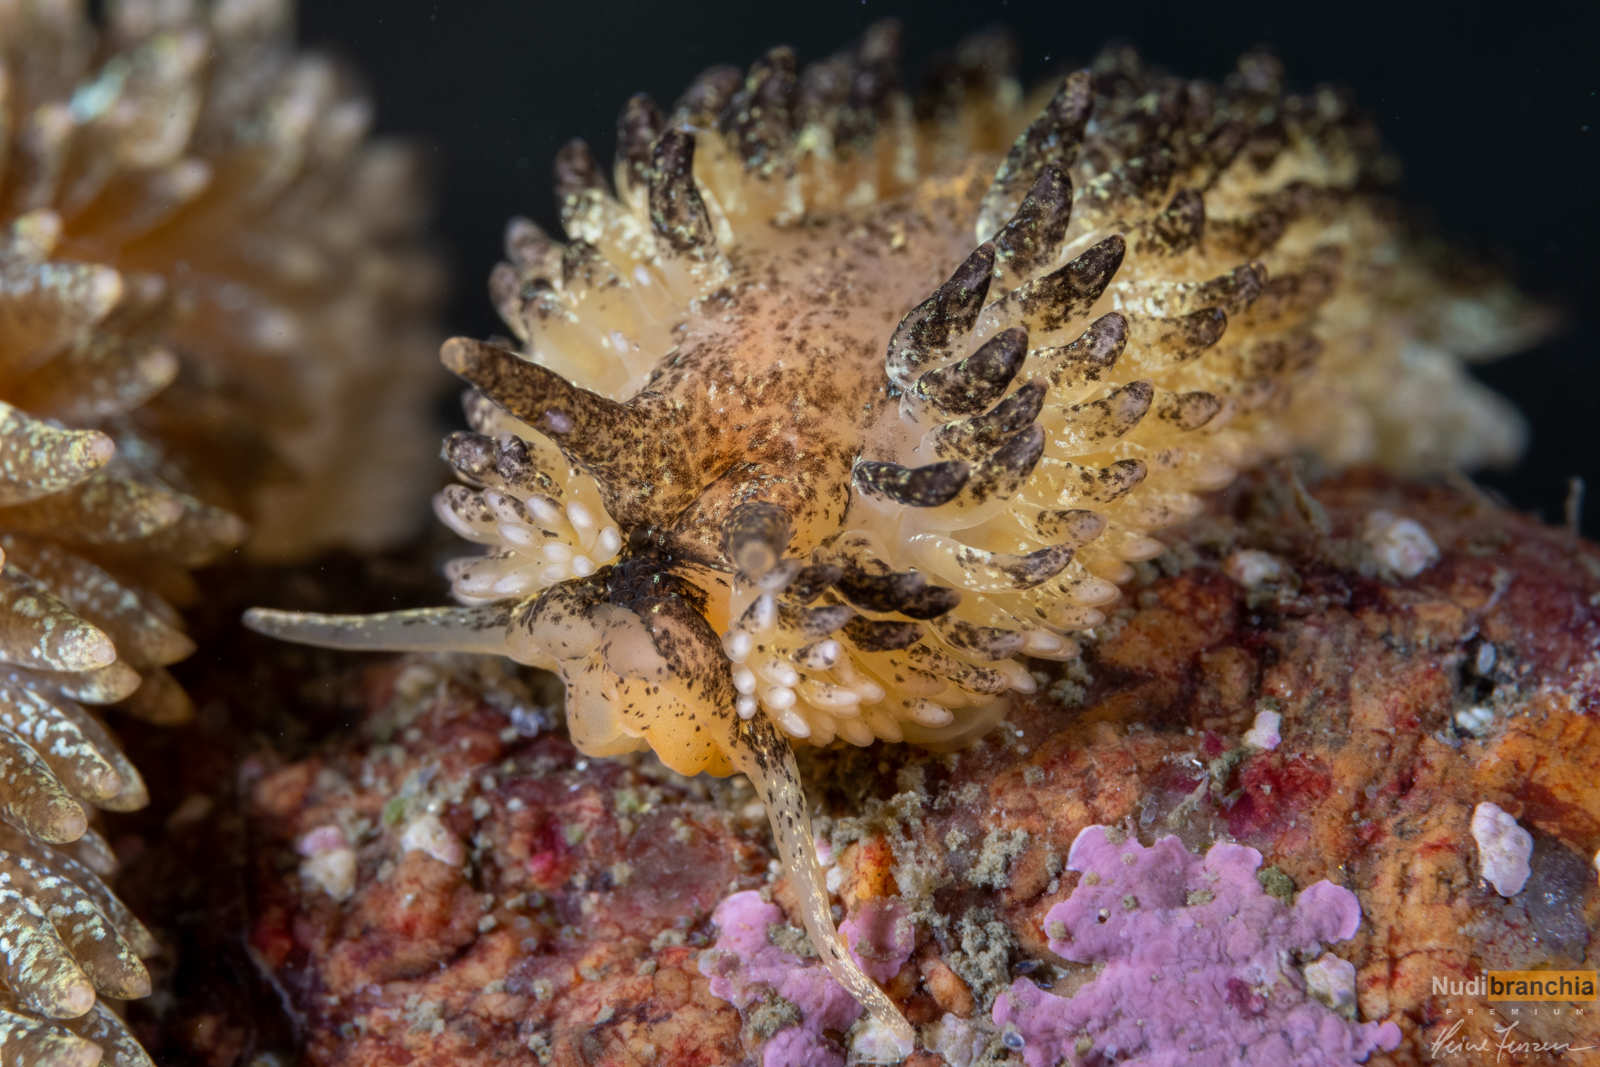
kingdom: Animalia
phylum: Mollusca
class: Gastropoda
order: Nudibranchia
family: Aeolidiidae
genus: Aeolidia
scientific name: Aeolidia papillosa
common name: Common grey sea slug
